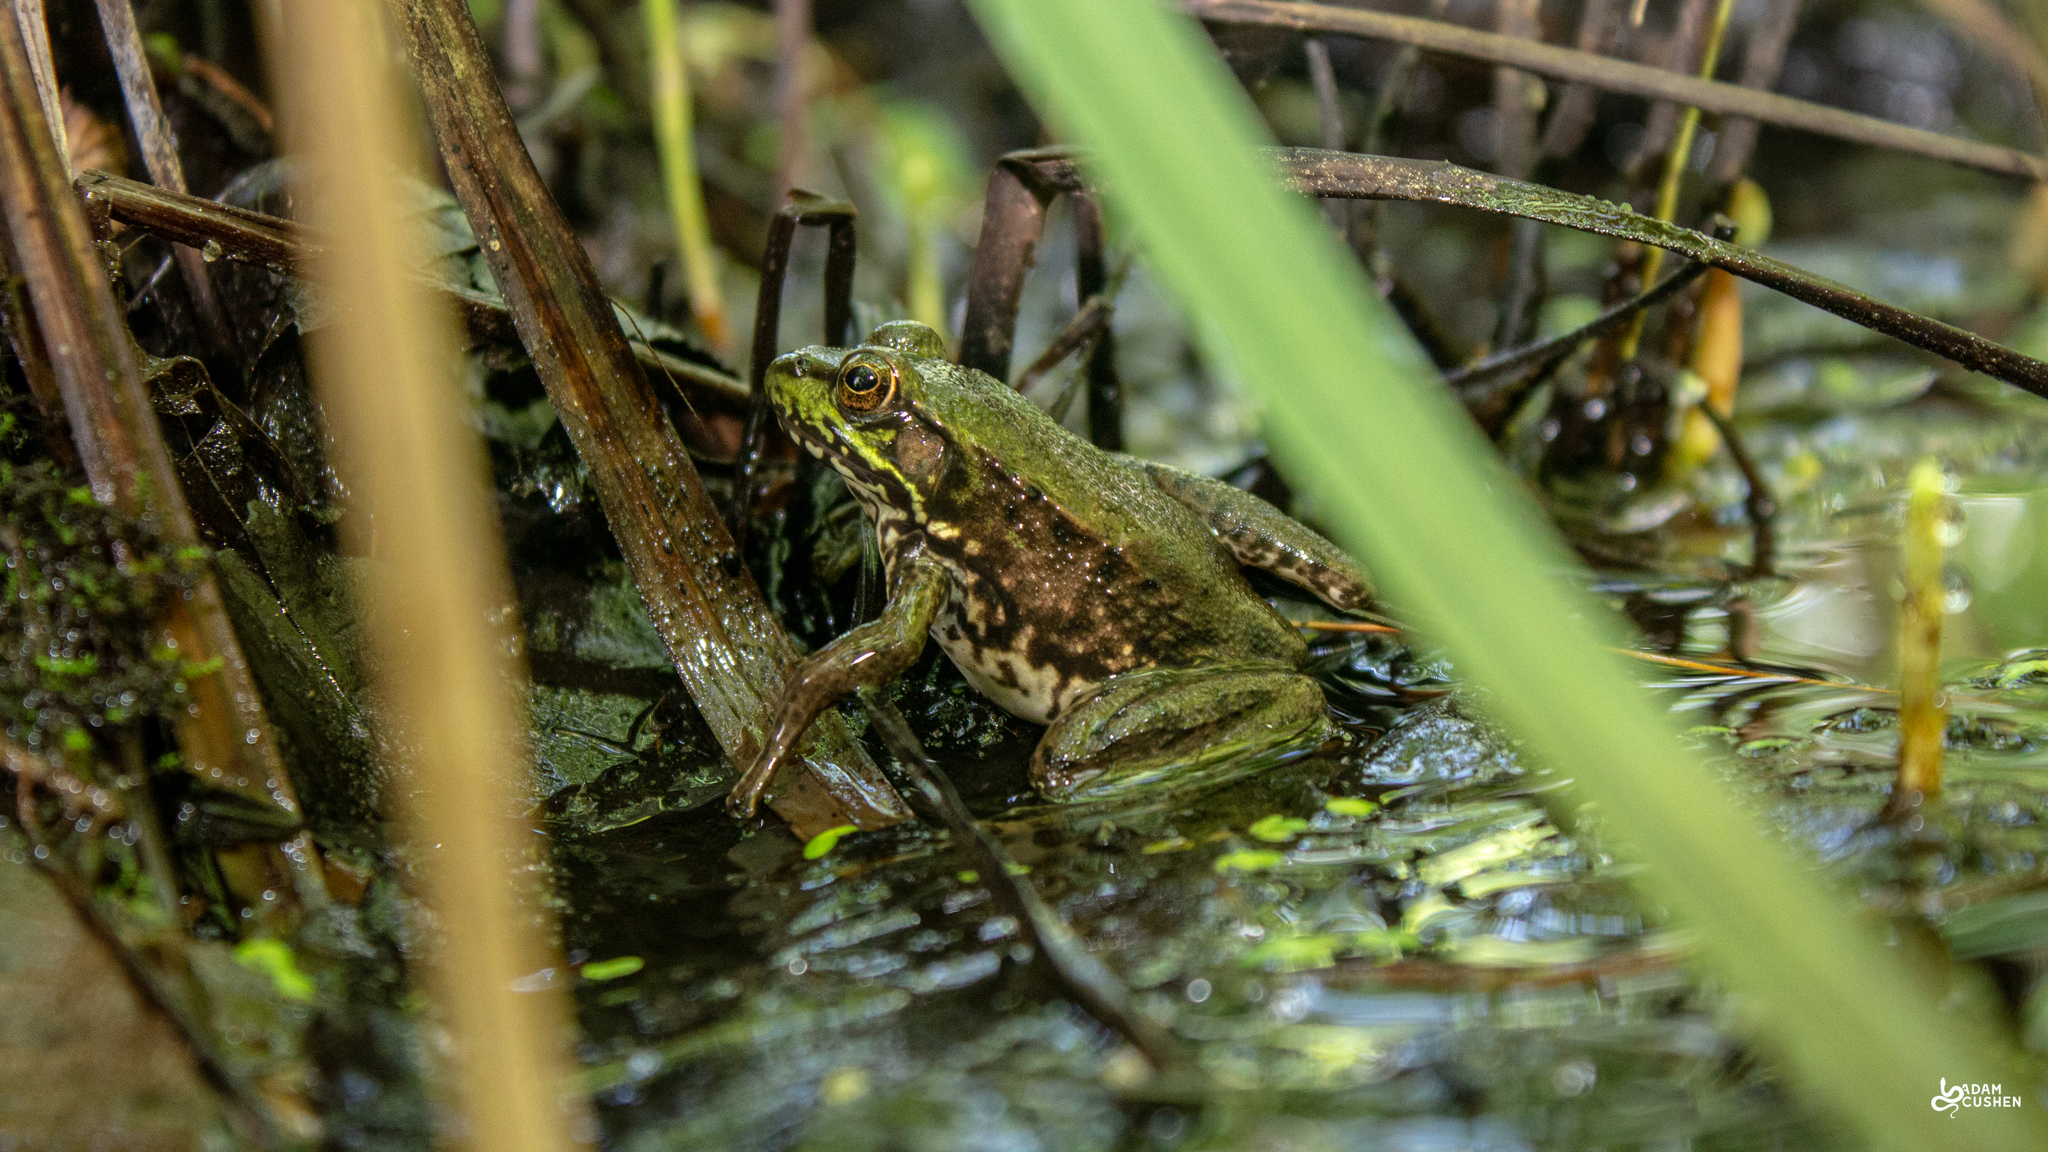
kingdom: Animalia
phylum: Chordata
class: Amphibia
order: Anura
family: Ranidae
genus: Lithobates
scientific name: Lithobates clamitans
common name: Green frog
